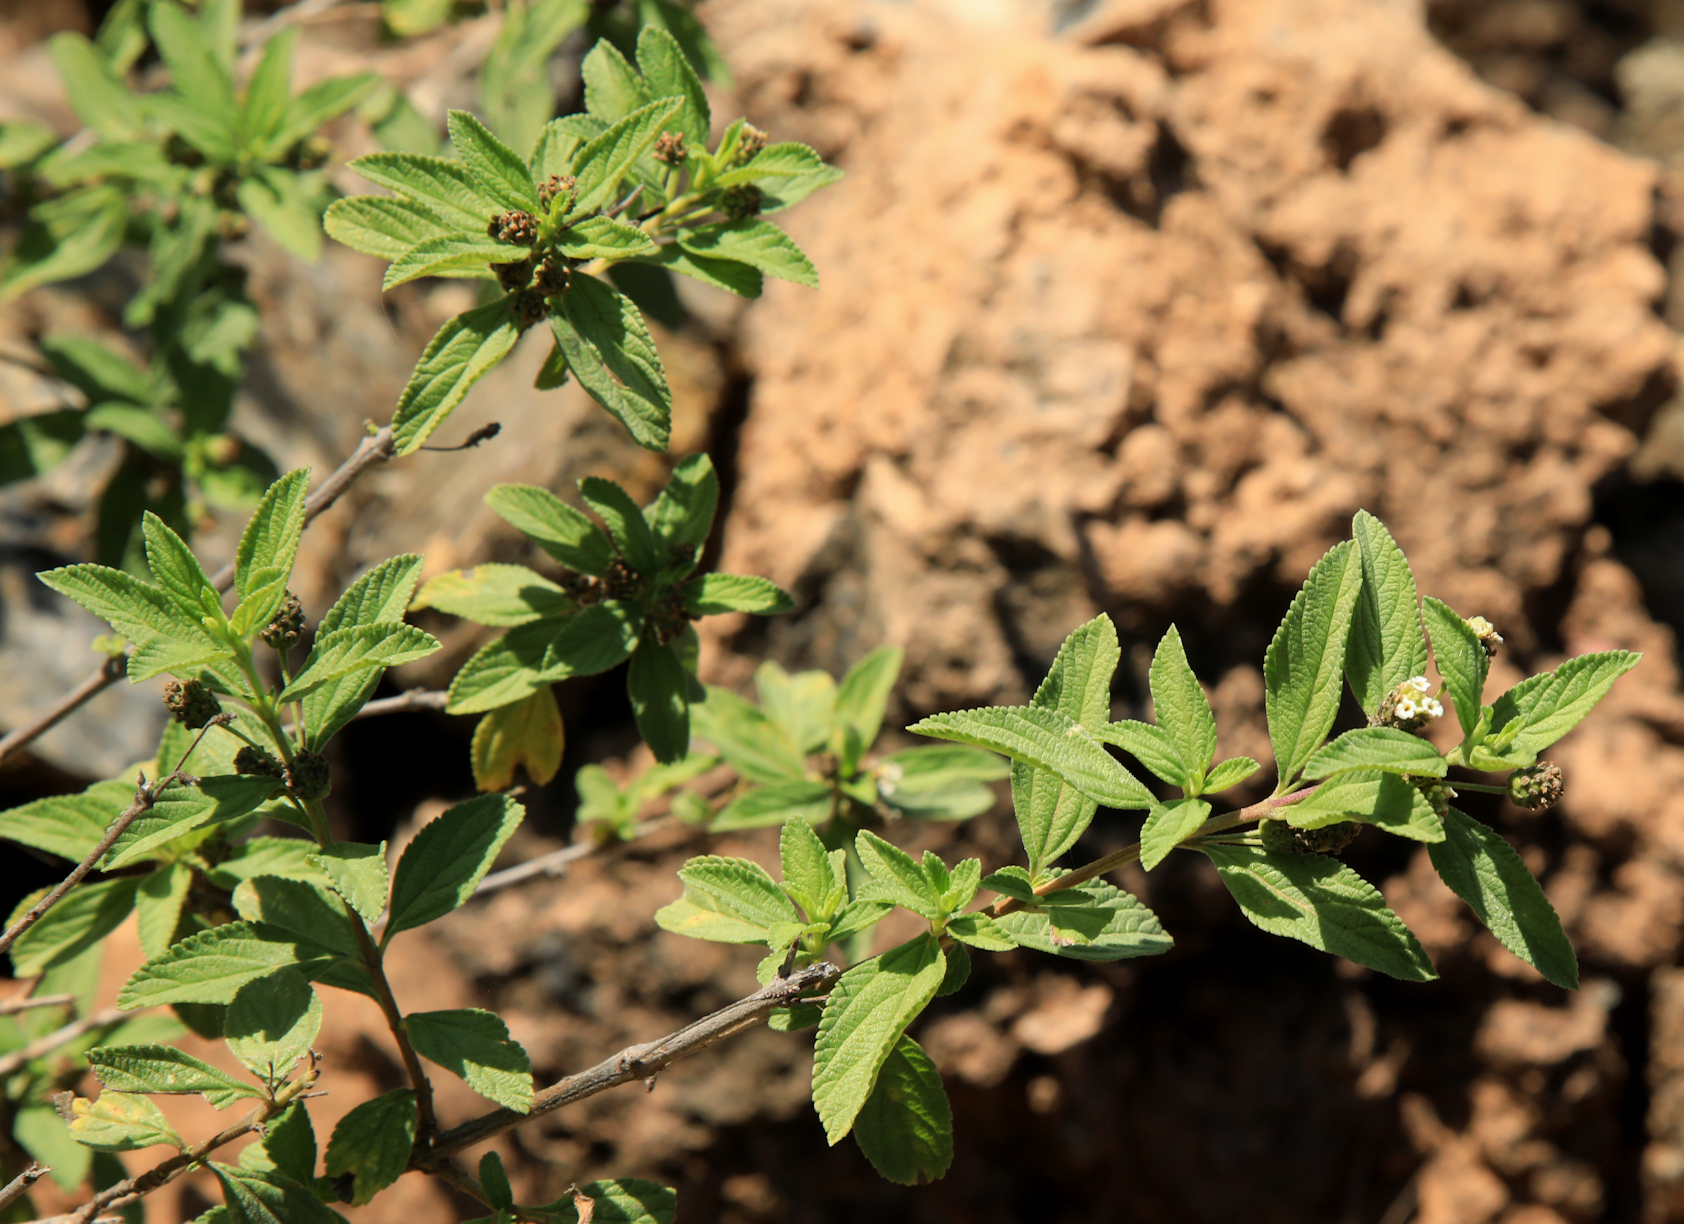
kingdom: Plantae
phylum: Tracheophyta
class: Magnoliopsida
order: Lamiales
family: Verbenaceae
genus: Lippia
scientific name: Lippia javanica
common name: Lemonbush
